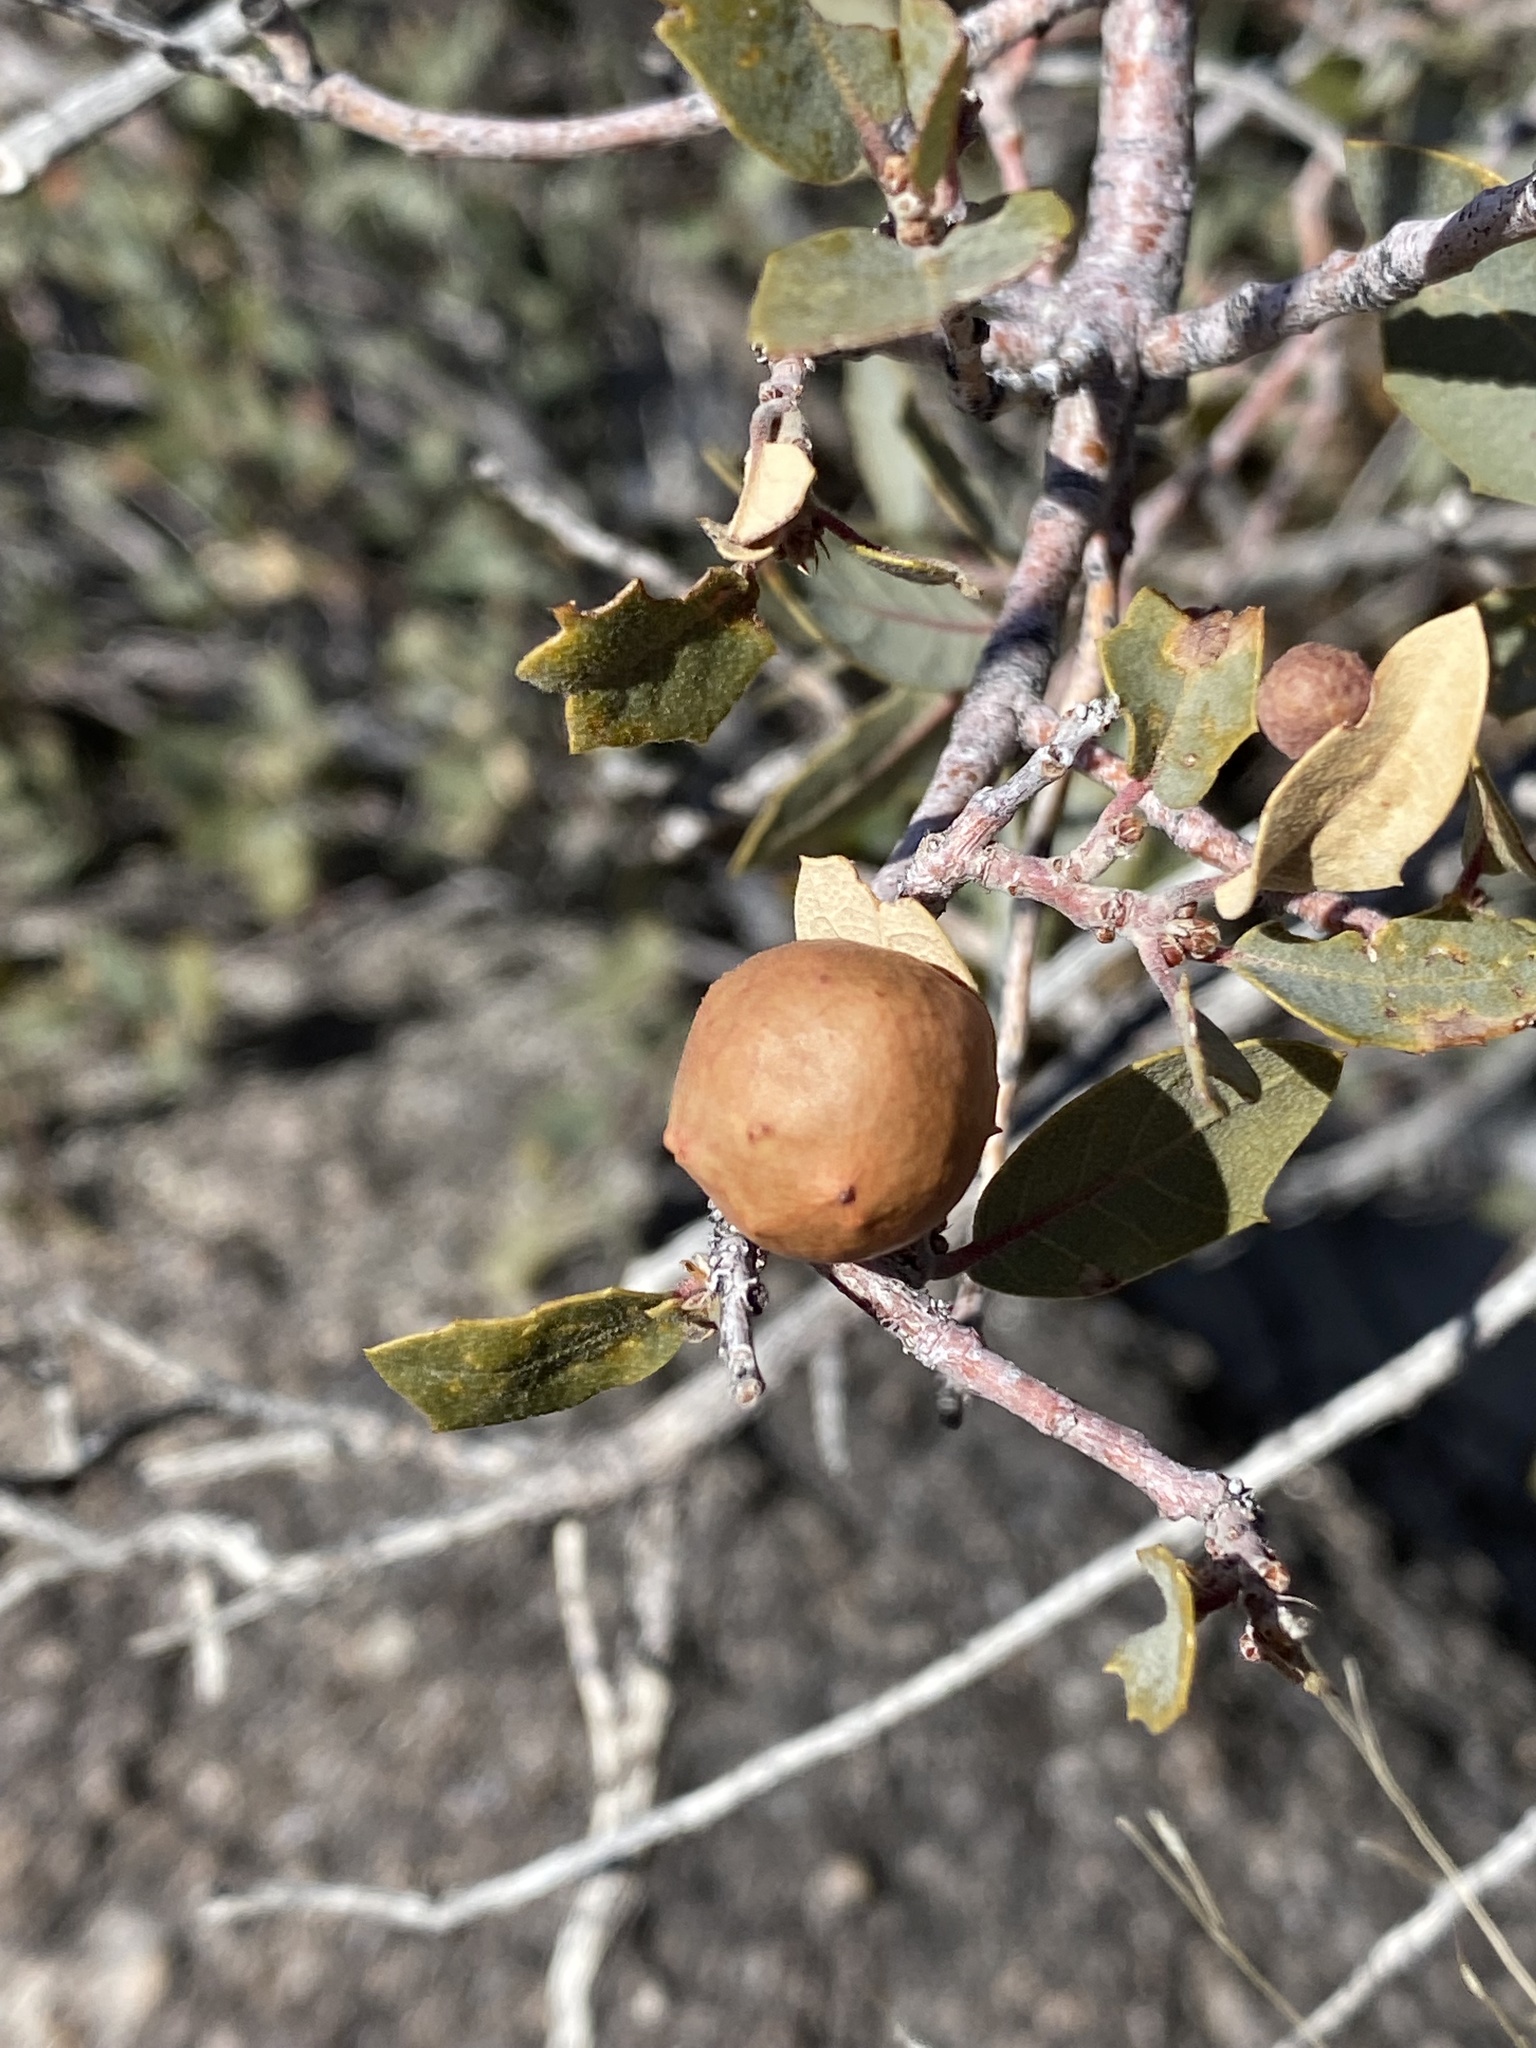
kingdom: Animalia
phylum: Arthropoda
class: Insecta
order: Hymenoptera
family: Cynipidae
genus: Atrusca
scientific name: Atrusca
